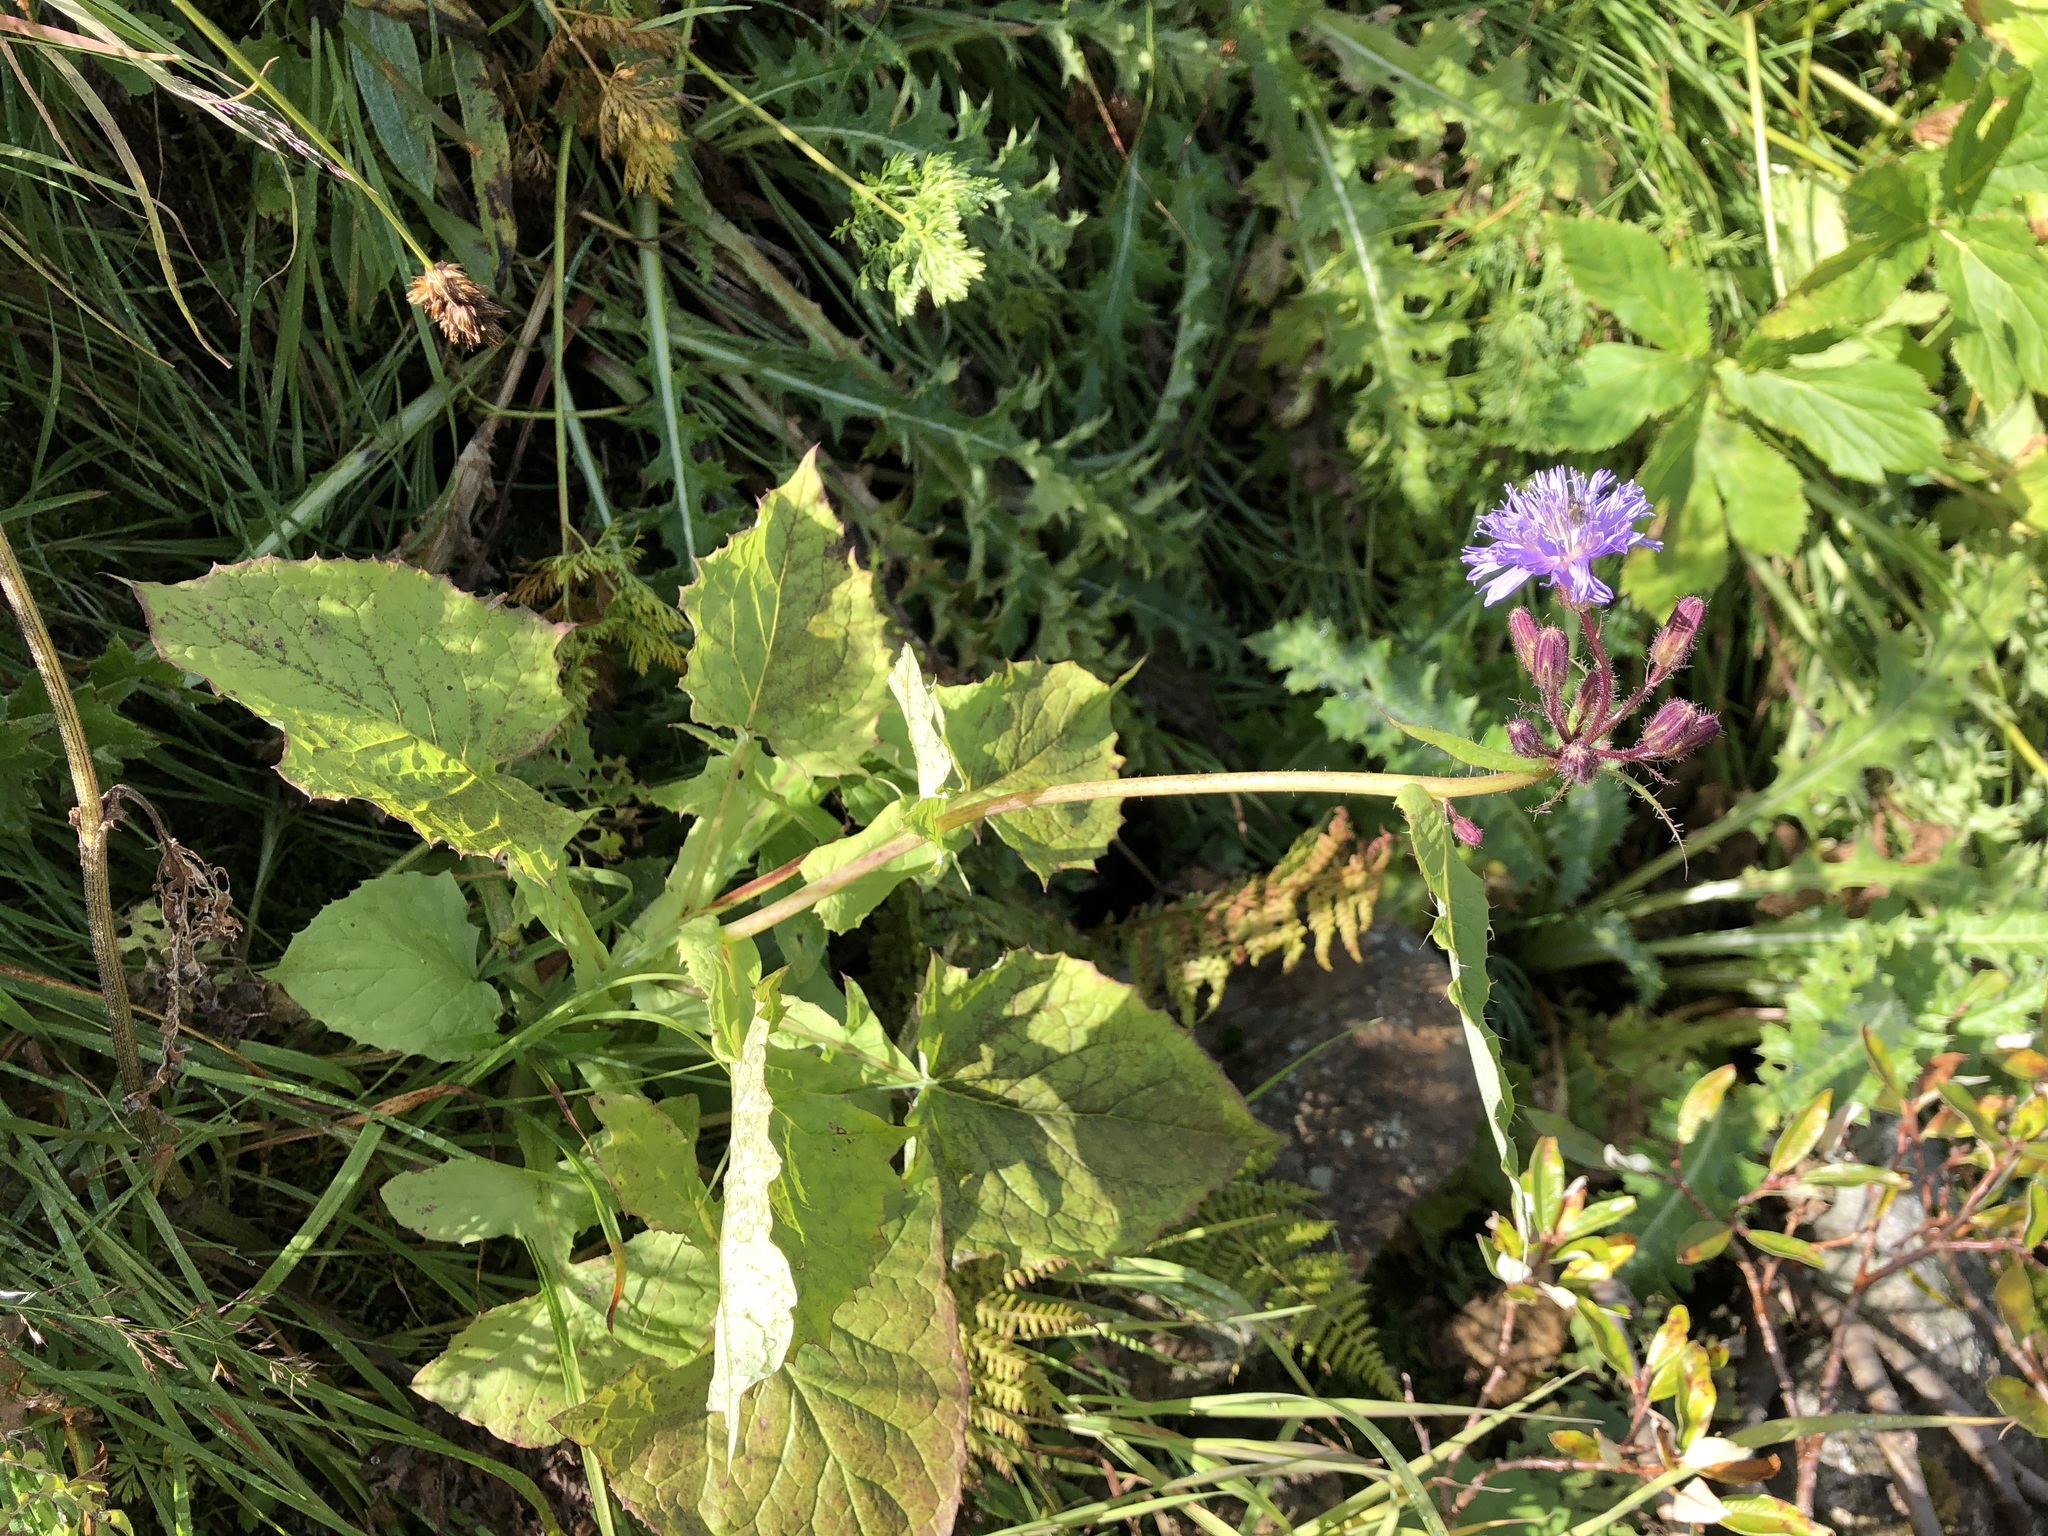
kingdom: Plantae
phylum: Tracheophyta
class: Magnoliopsida
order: Asterales
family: Asteraceae
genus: Cicerbita
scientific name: Cicerbita alpina
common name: Alpine blue-sow-thistle
